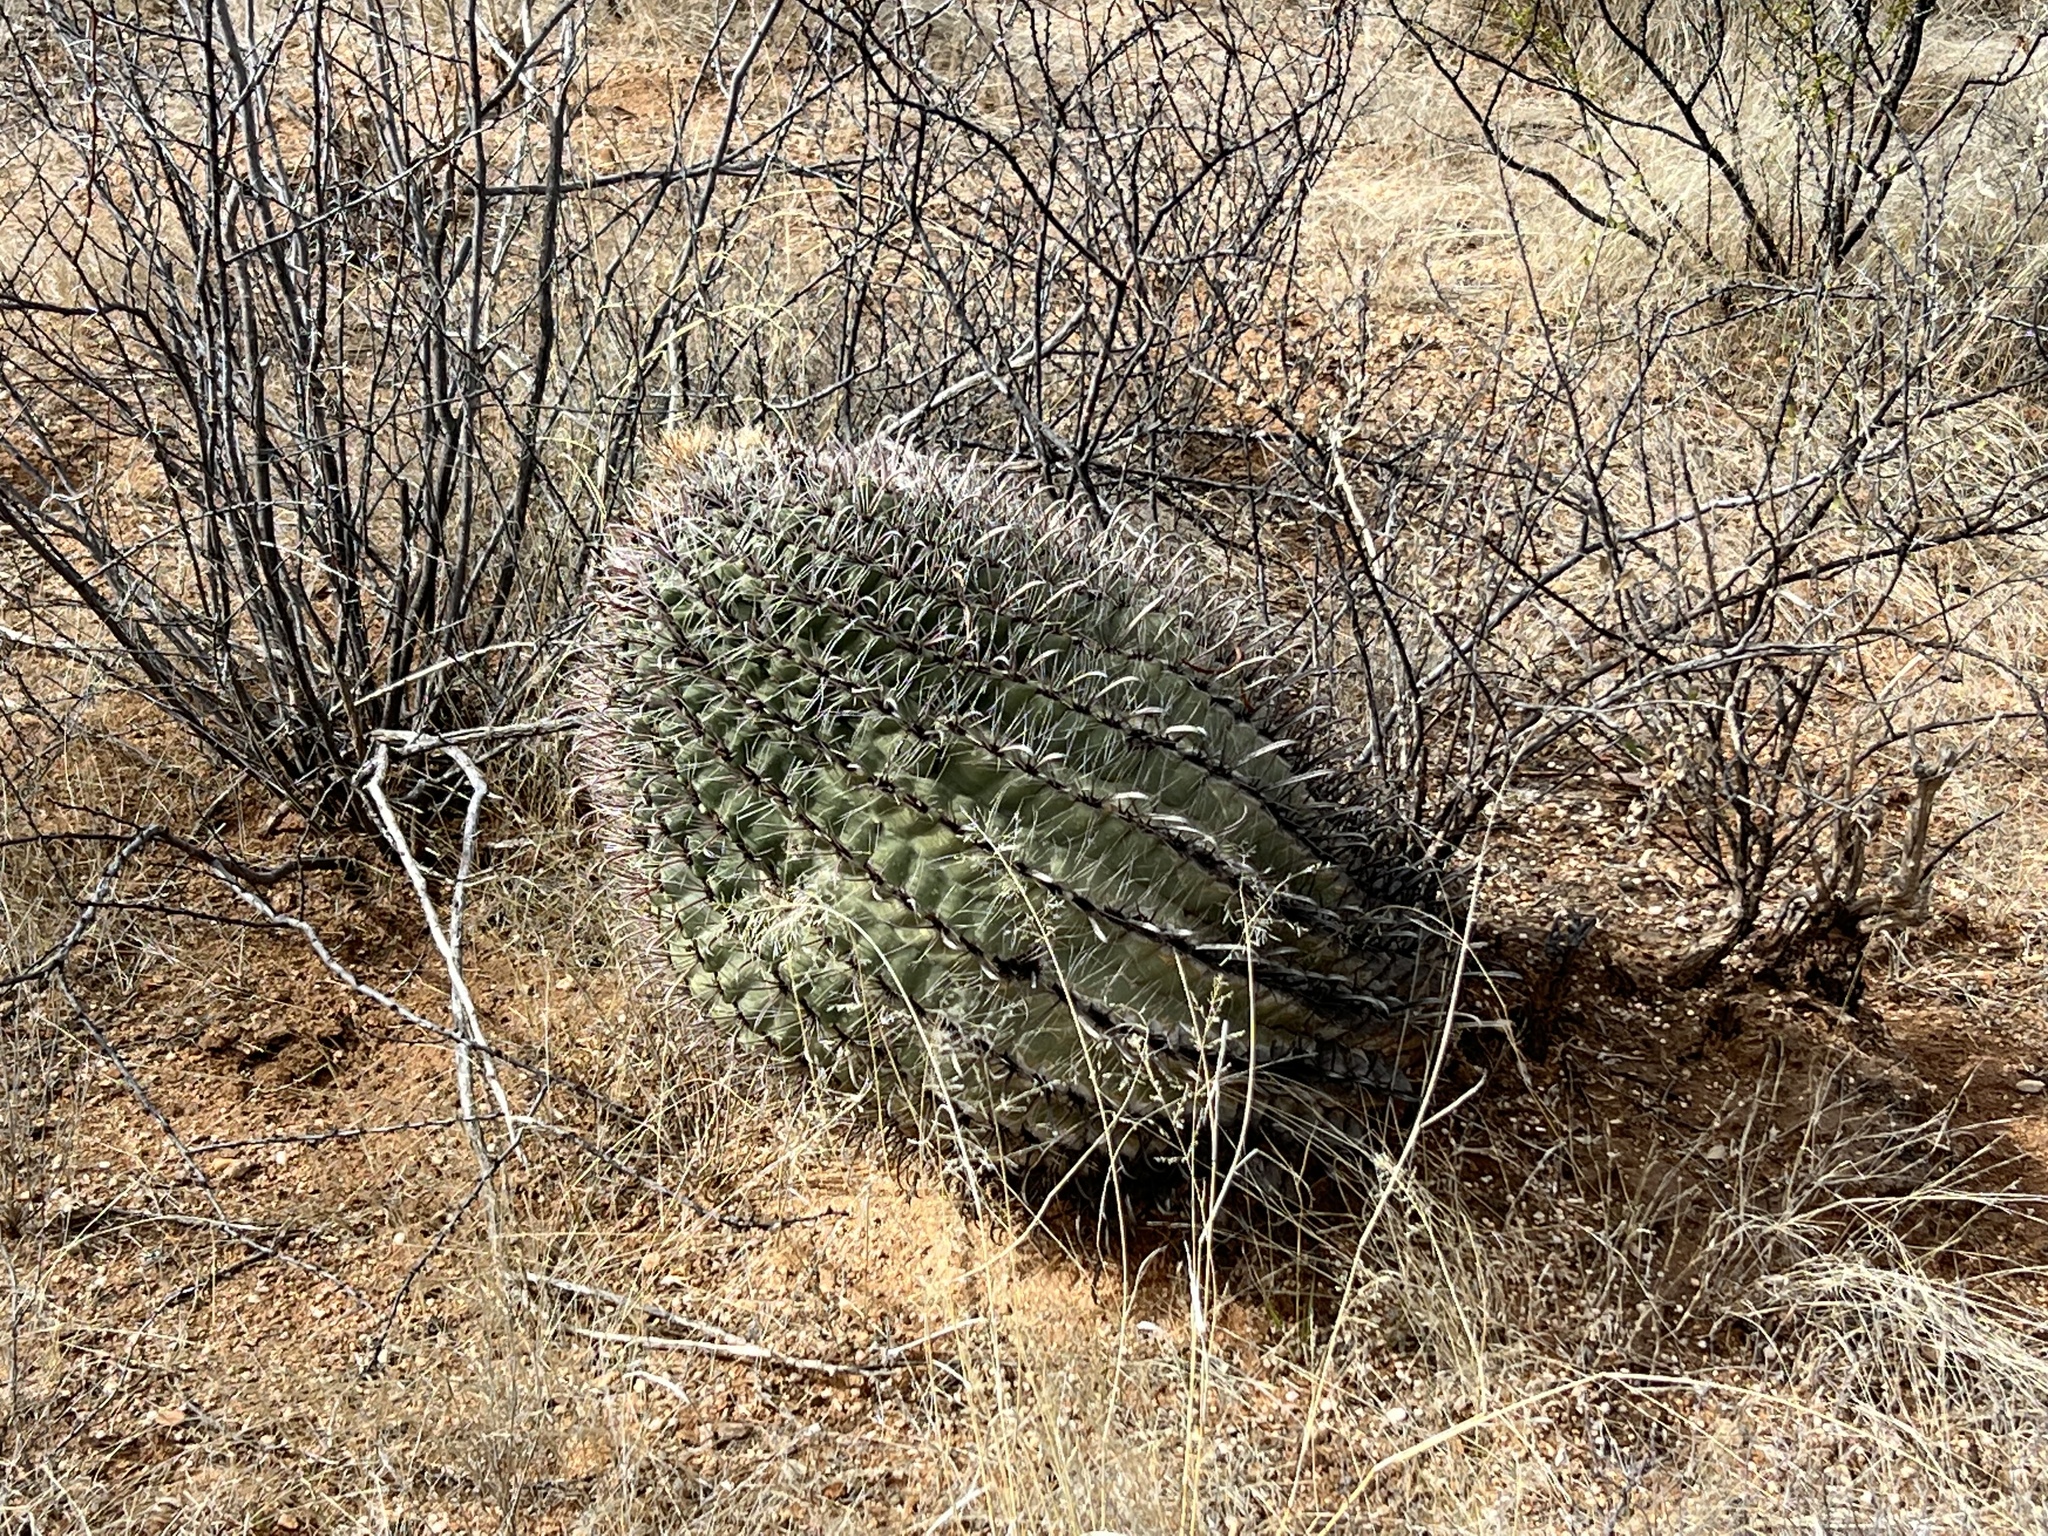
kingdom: Plantae
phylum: Tracheophyta
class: Magnoliopsida
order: Caryophyllales
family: Cactaceae
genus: Ferocactus
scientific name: Ferocactus wislizeni
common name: Candy barrel cactus
